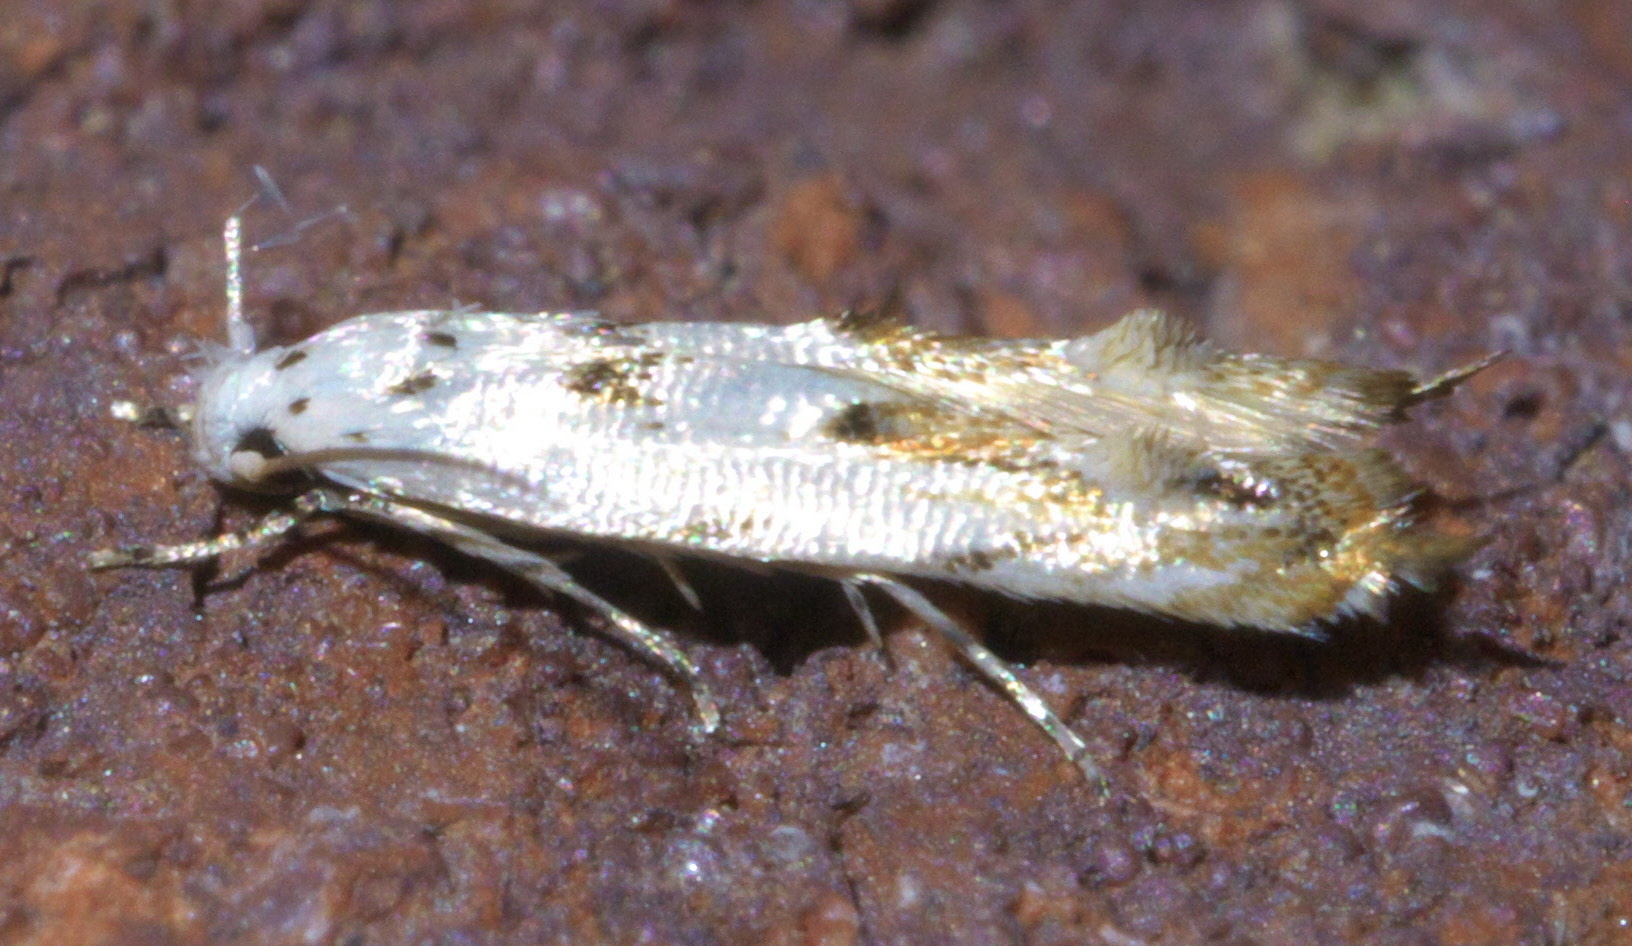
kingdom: Animalia
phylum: Arthropoda
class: Insecta
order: Lepidoptera
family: Momphidae
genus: Mompha
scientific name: Mompha eloisella
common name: Red-streaked mompha moth
